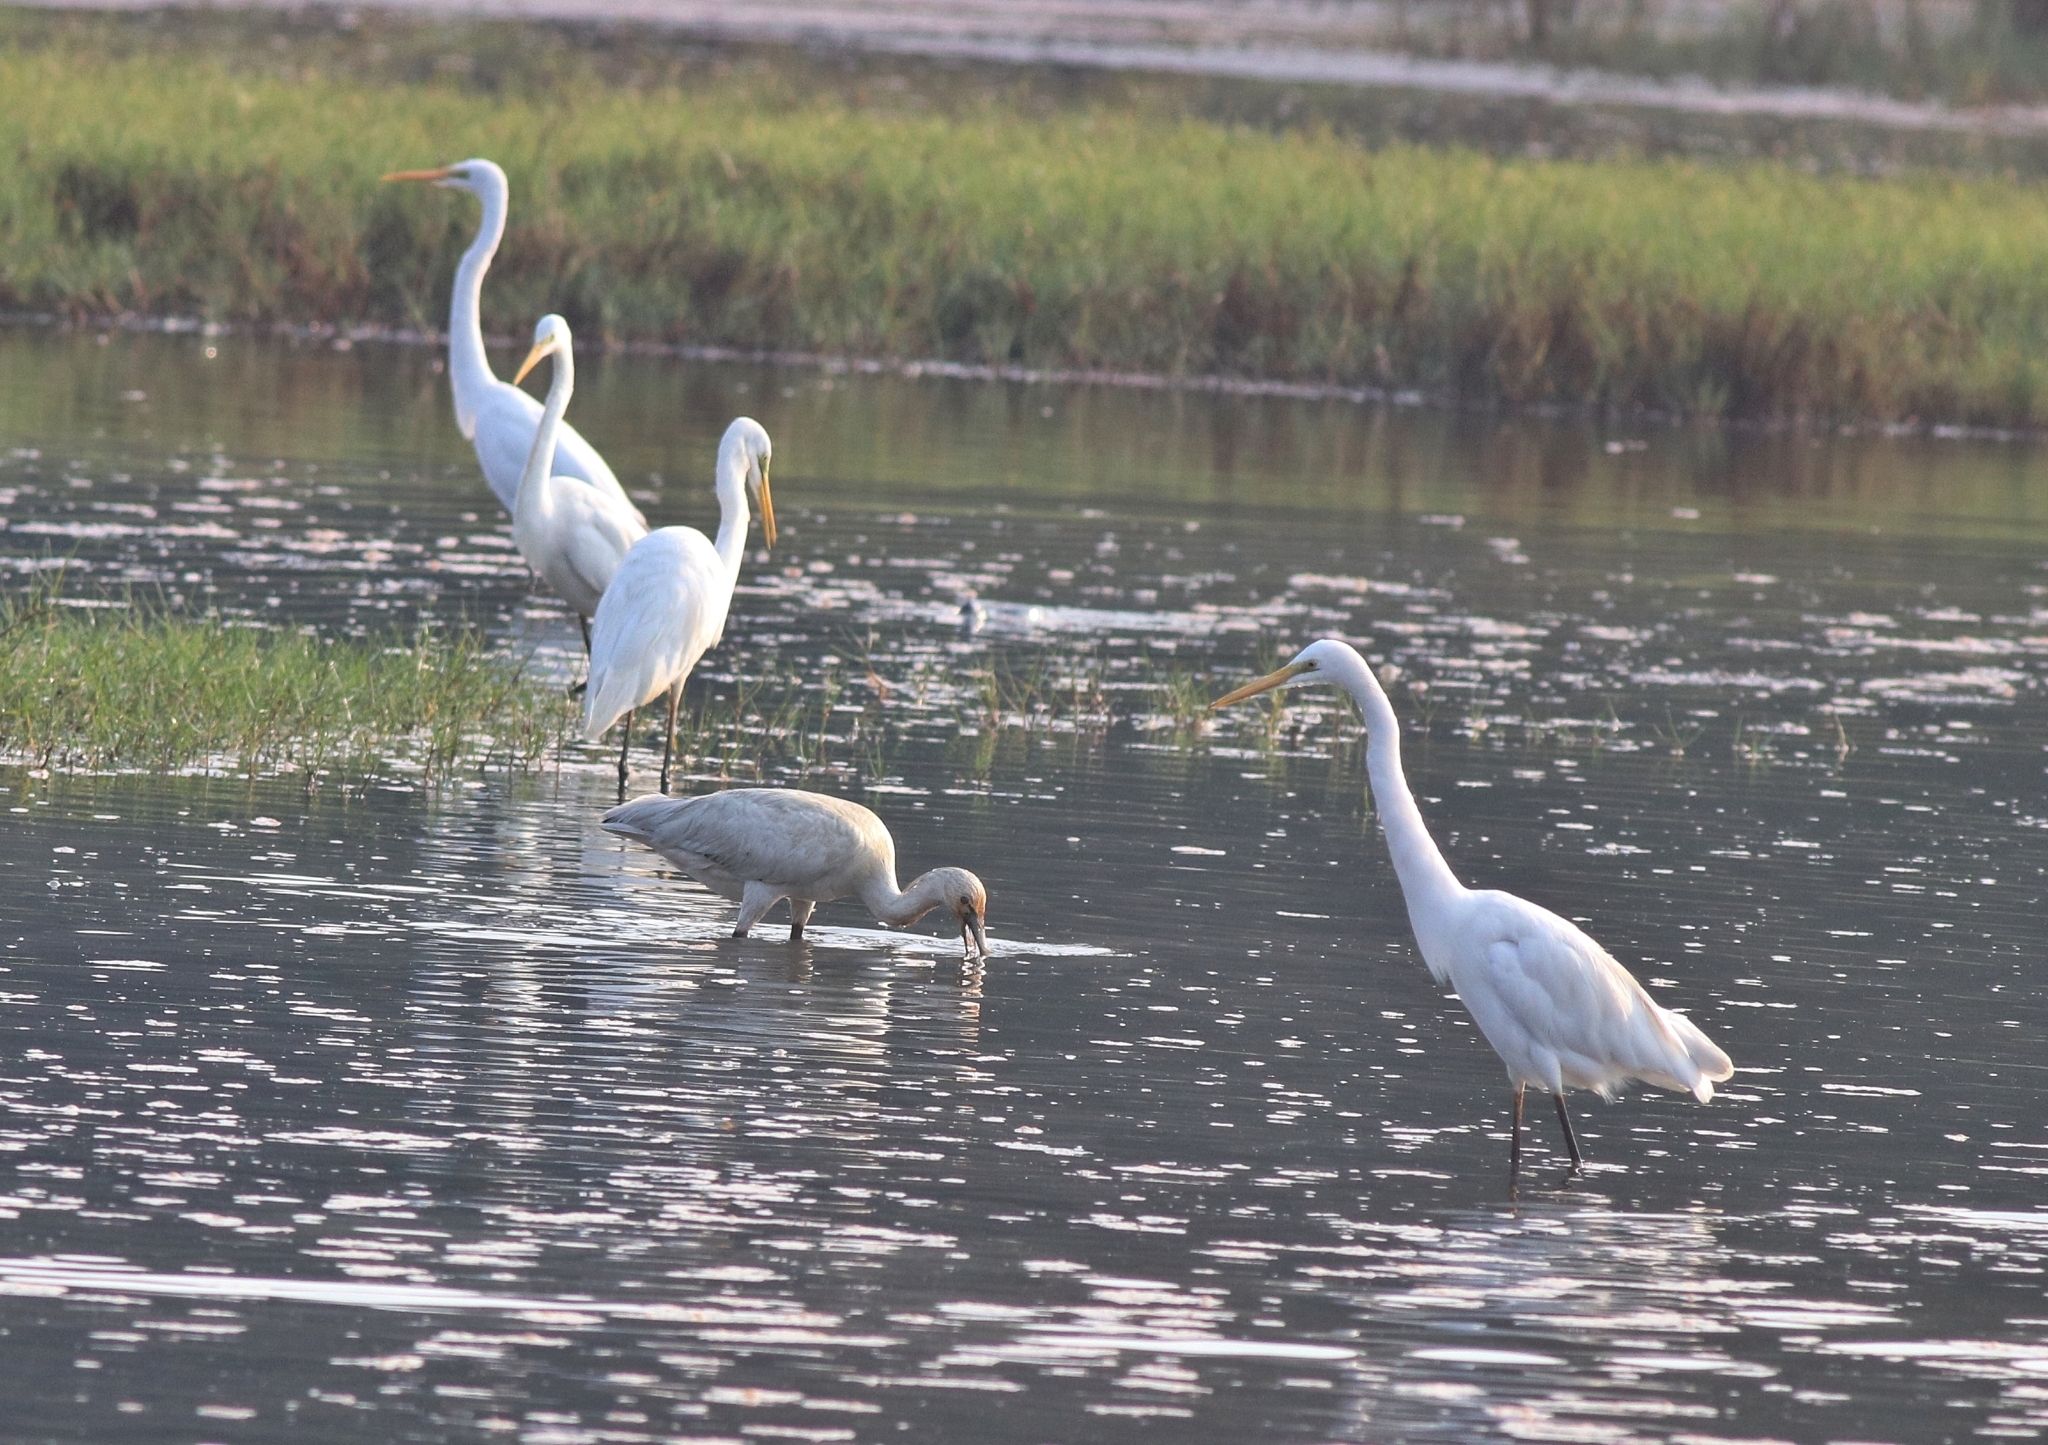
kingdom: Animalia
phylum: Chordata
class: Aves
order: Pelecaniformes
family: Ardeidae
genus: Ardea
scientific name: Ardea alba
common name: Great egret
